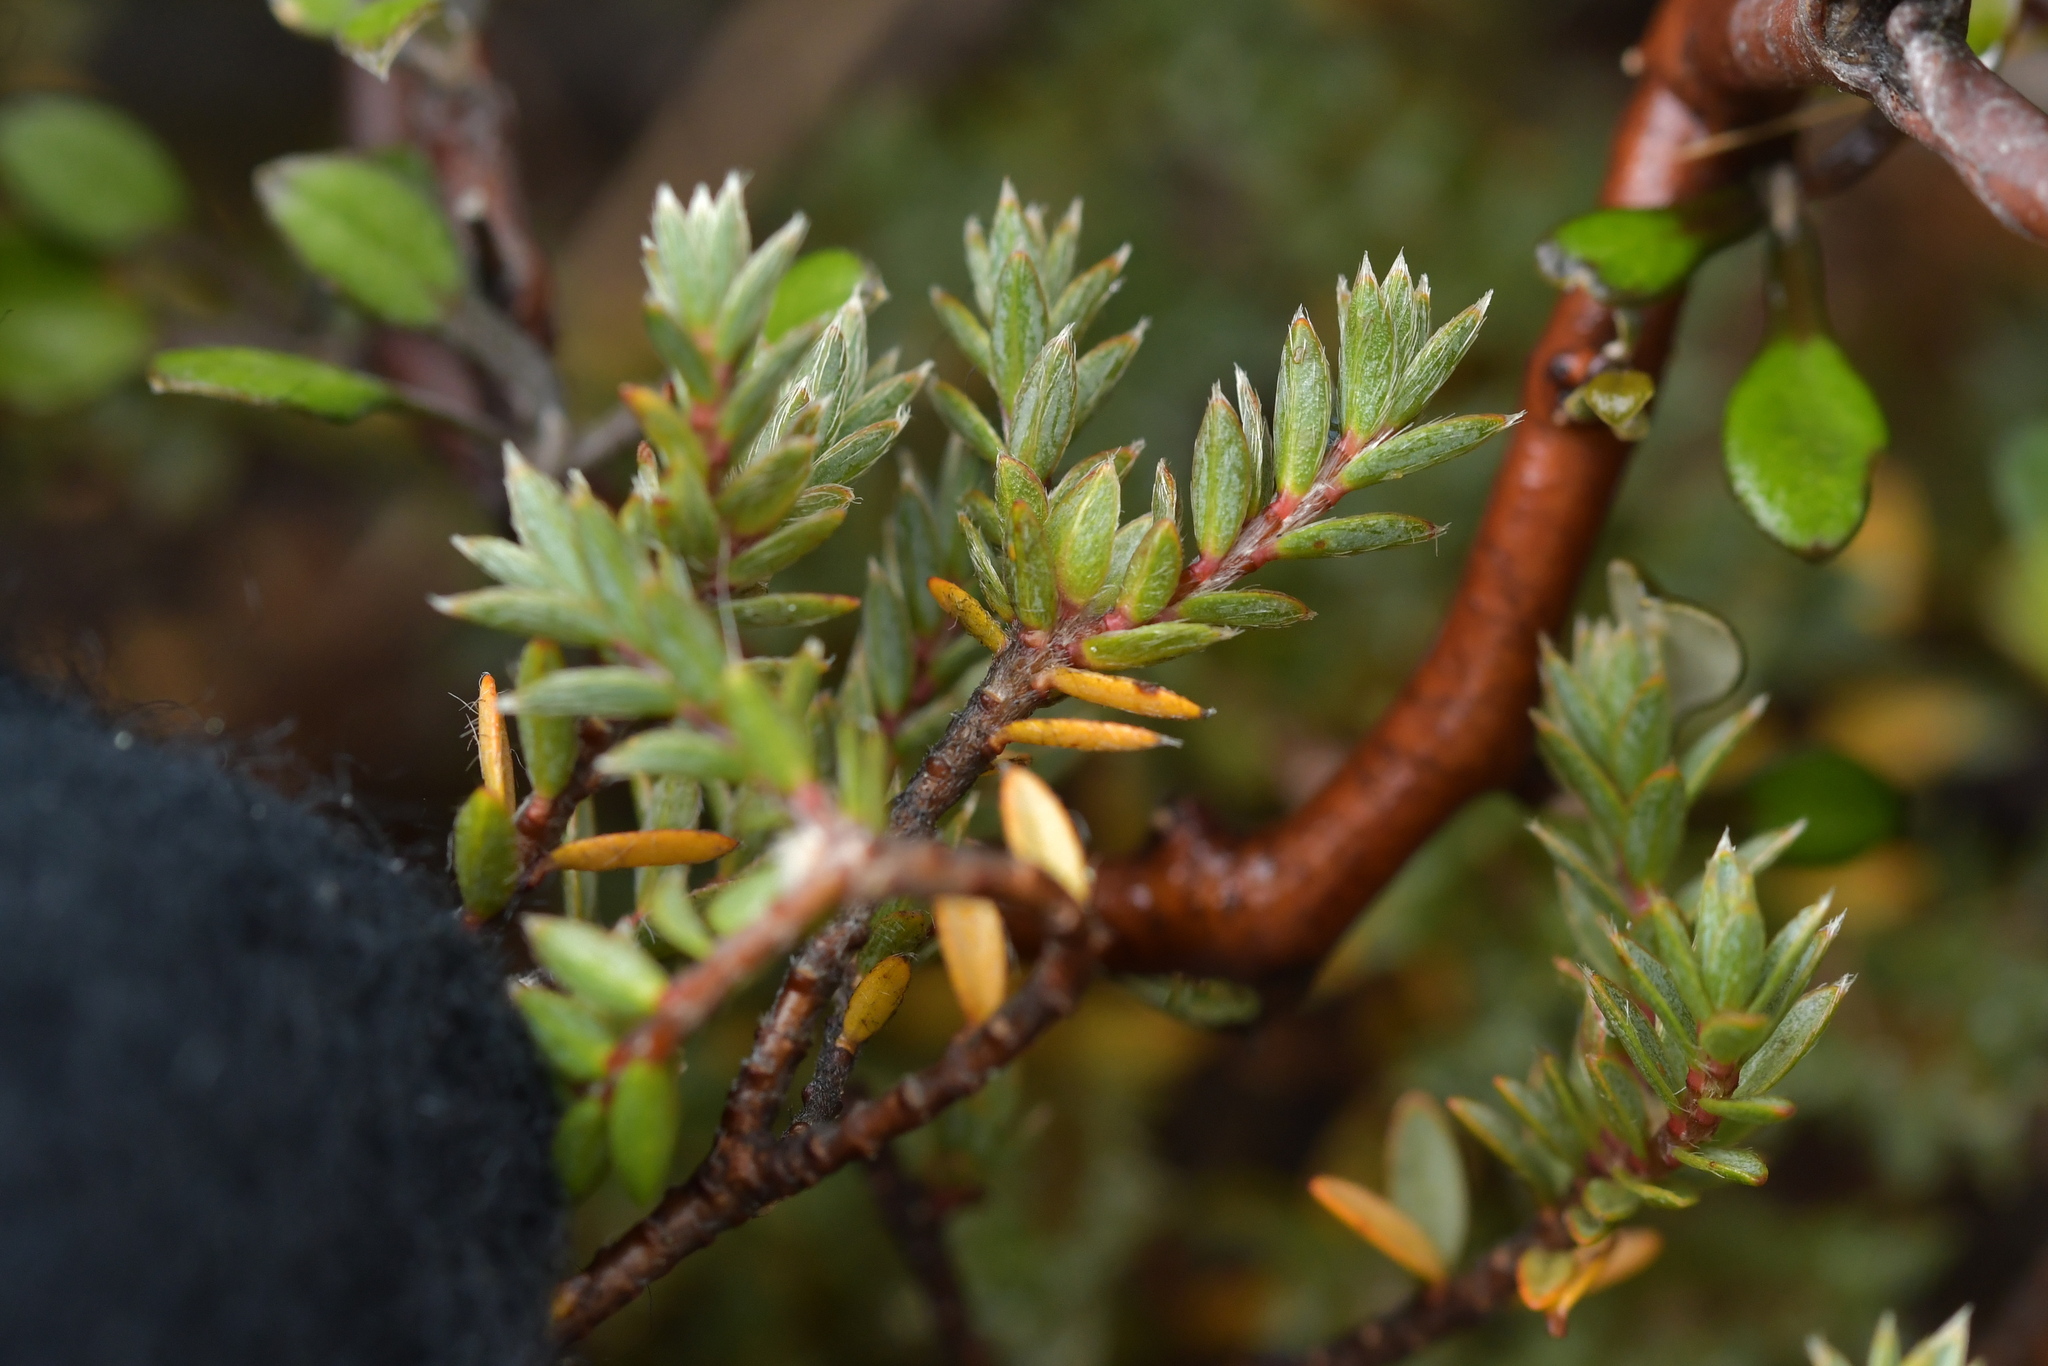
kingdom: Plantae
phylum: Tracheophyta
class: Magnoliopsida
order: Malvales
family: Thymelaeaceae
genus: Pimelea
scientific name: Pimelea oreophila
